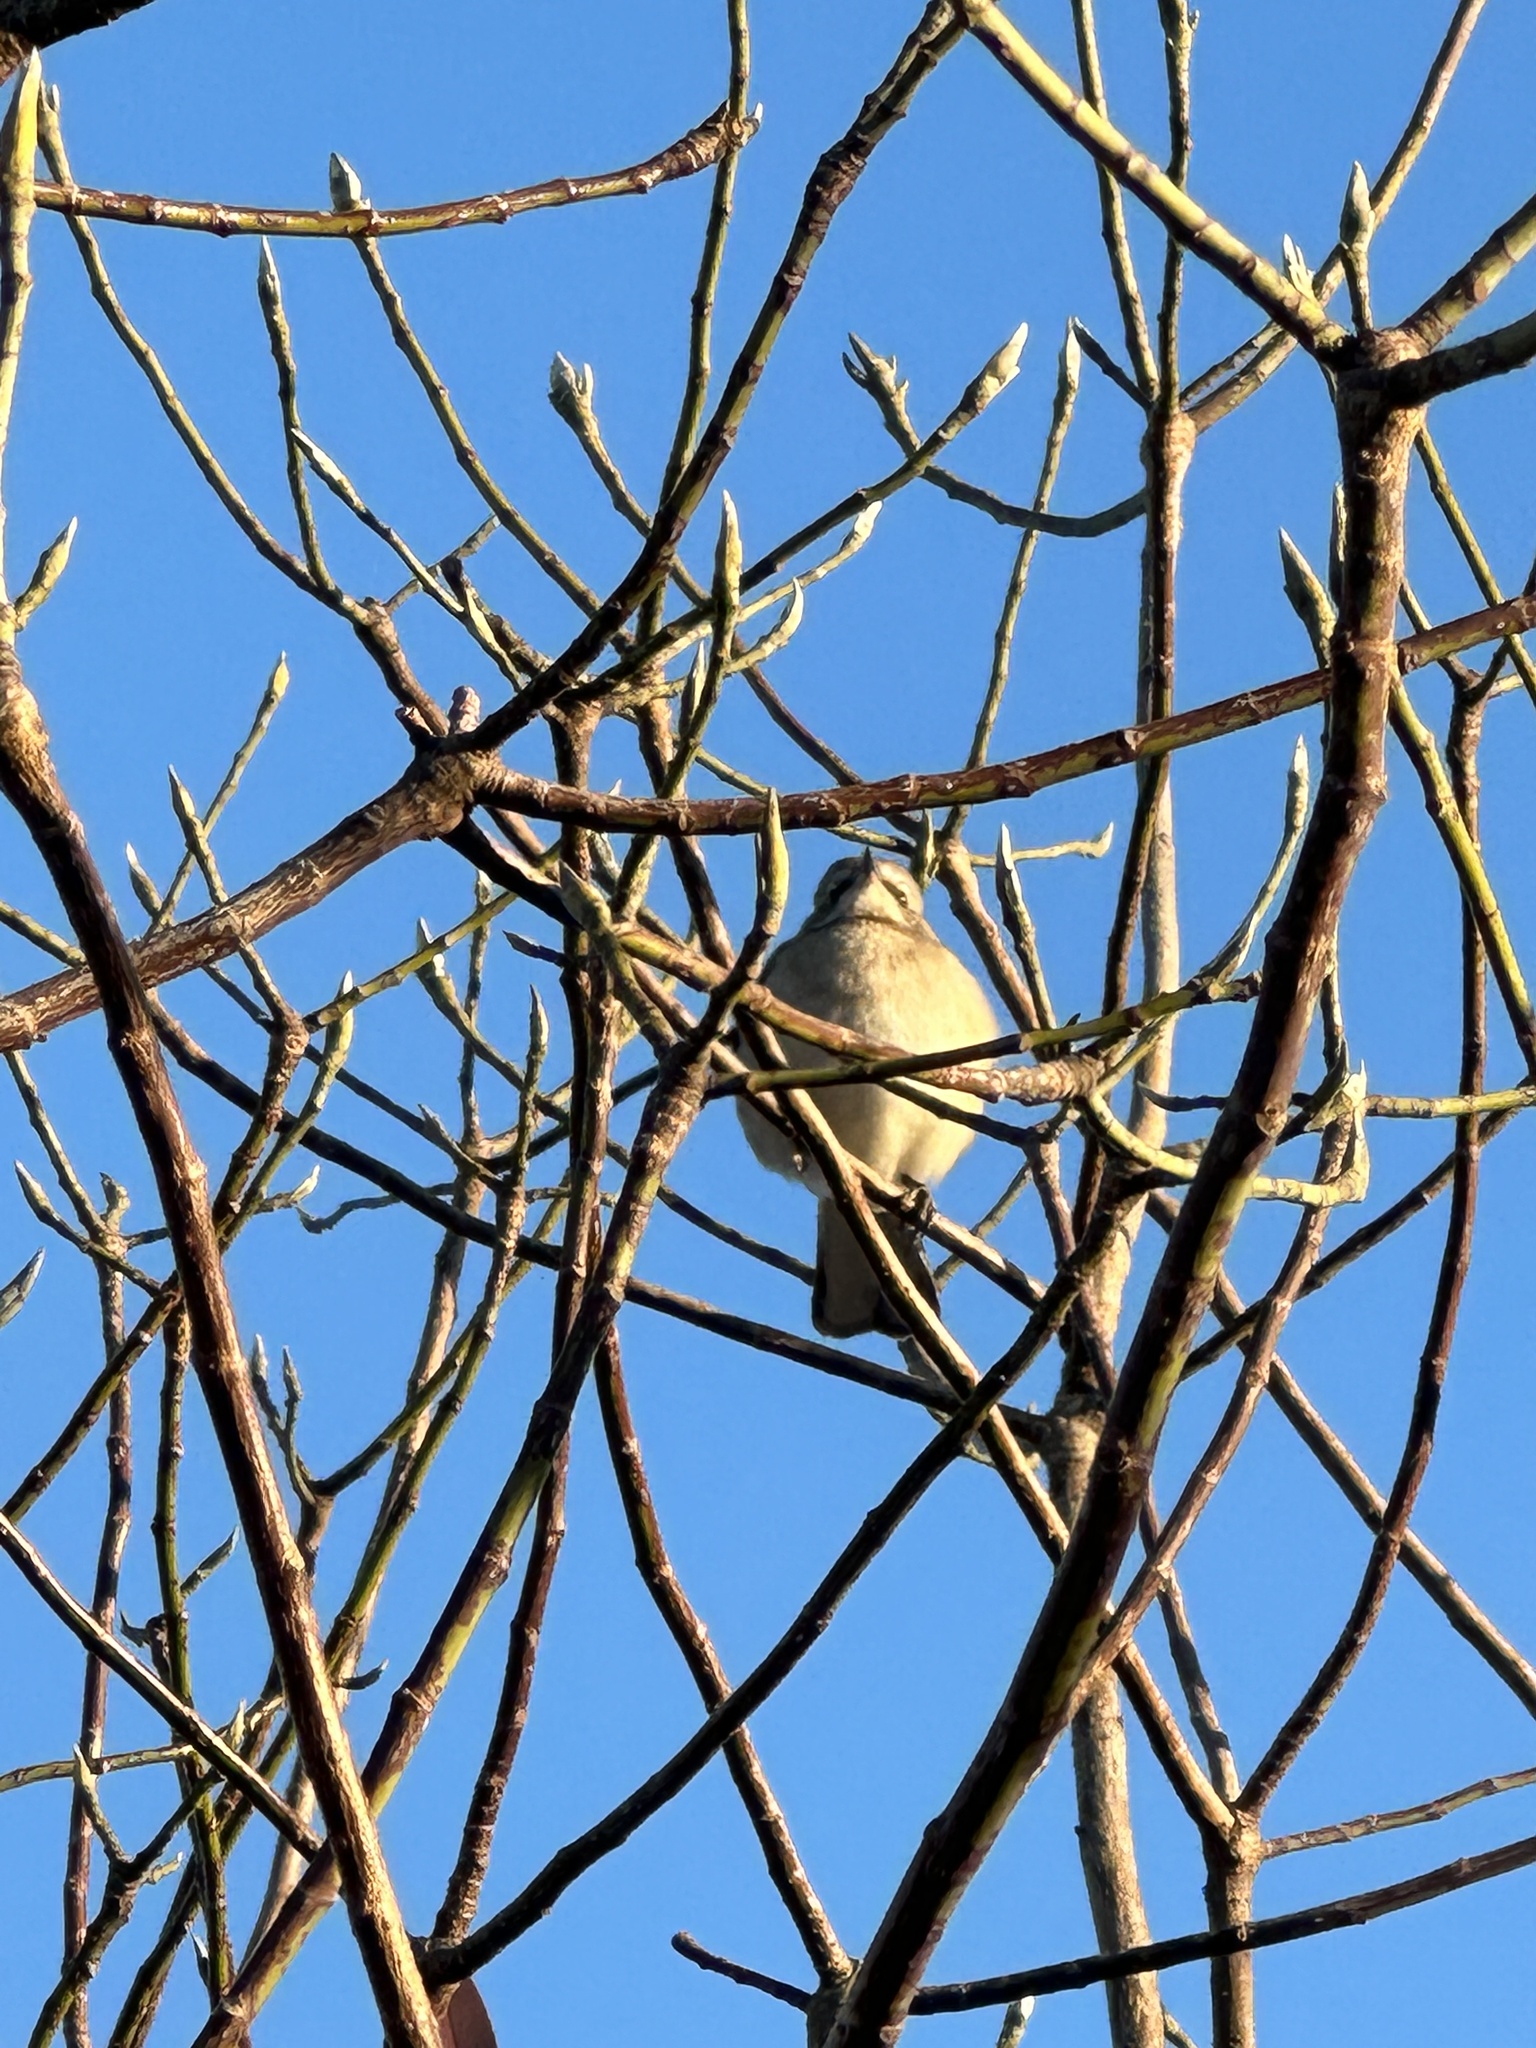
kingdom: Animalia
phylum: Chordata
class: Aves
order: Passeriformes
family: Mimidae
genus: Mimus
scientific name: Mimus polyglottos
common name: Northern mockingbird
